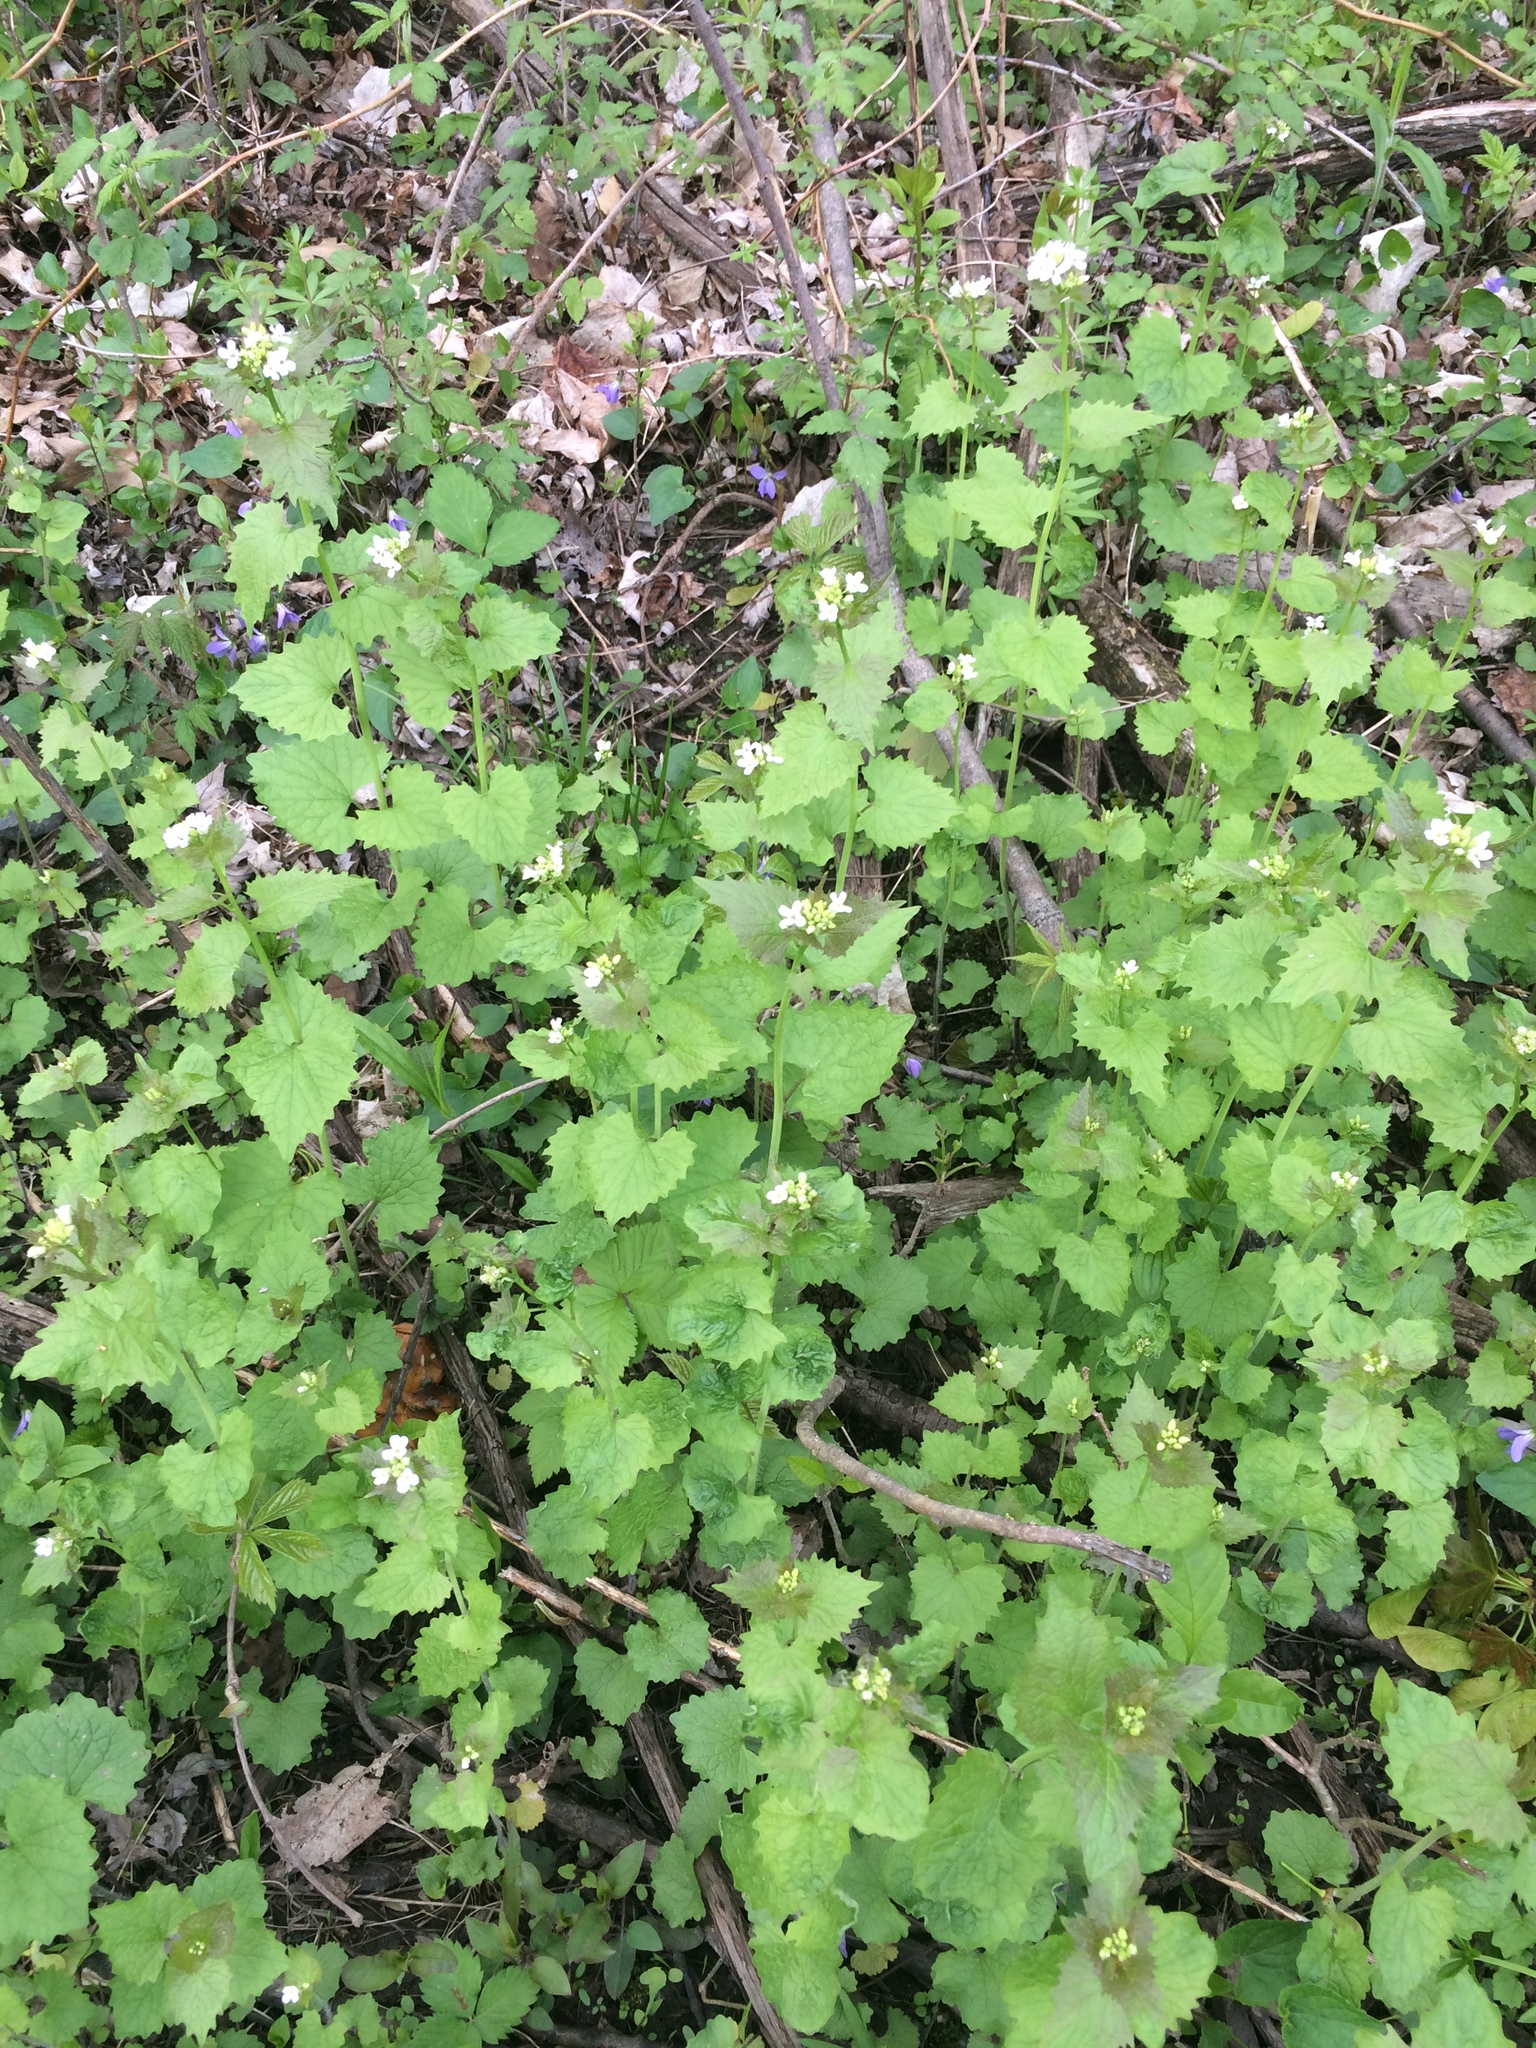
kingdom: Plantae
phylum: Tracheophyta
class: Magnoliopsida
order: Brassicales
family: Brassicaceae
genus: Alliaria
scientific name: Alliaria petiolata
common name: Garlic mustard
